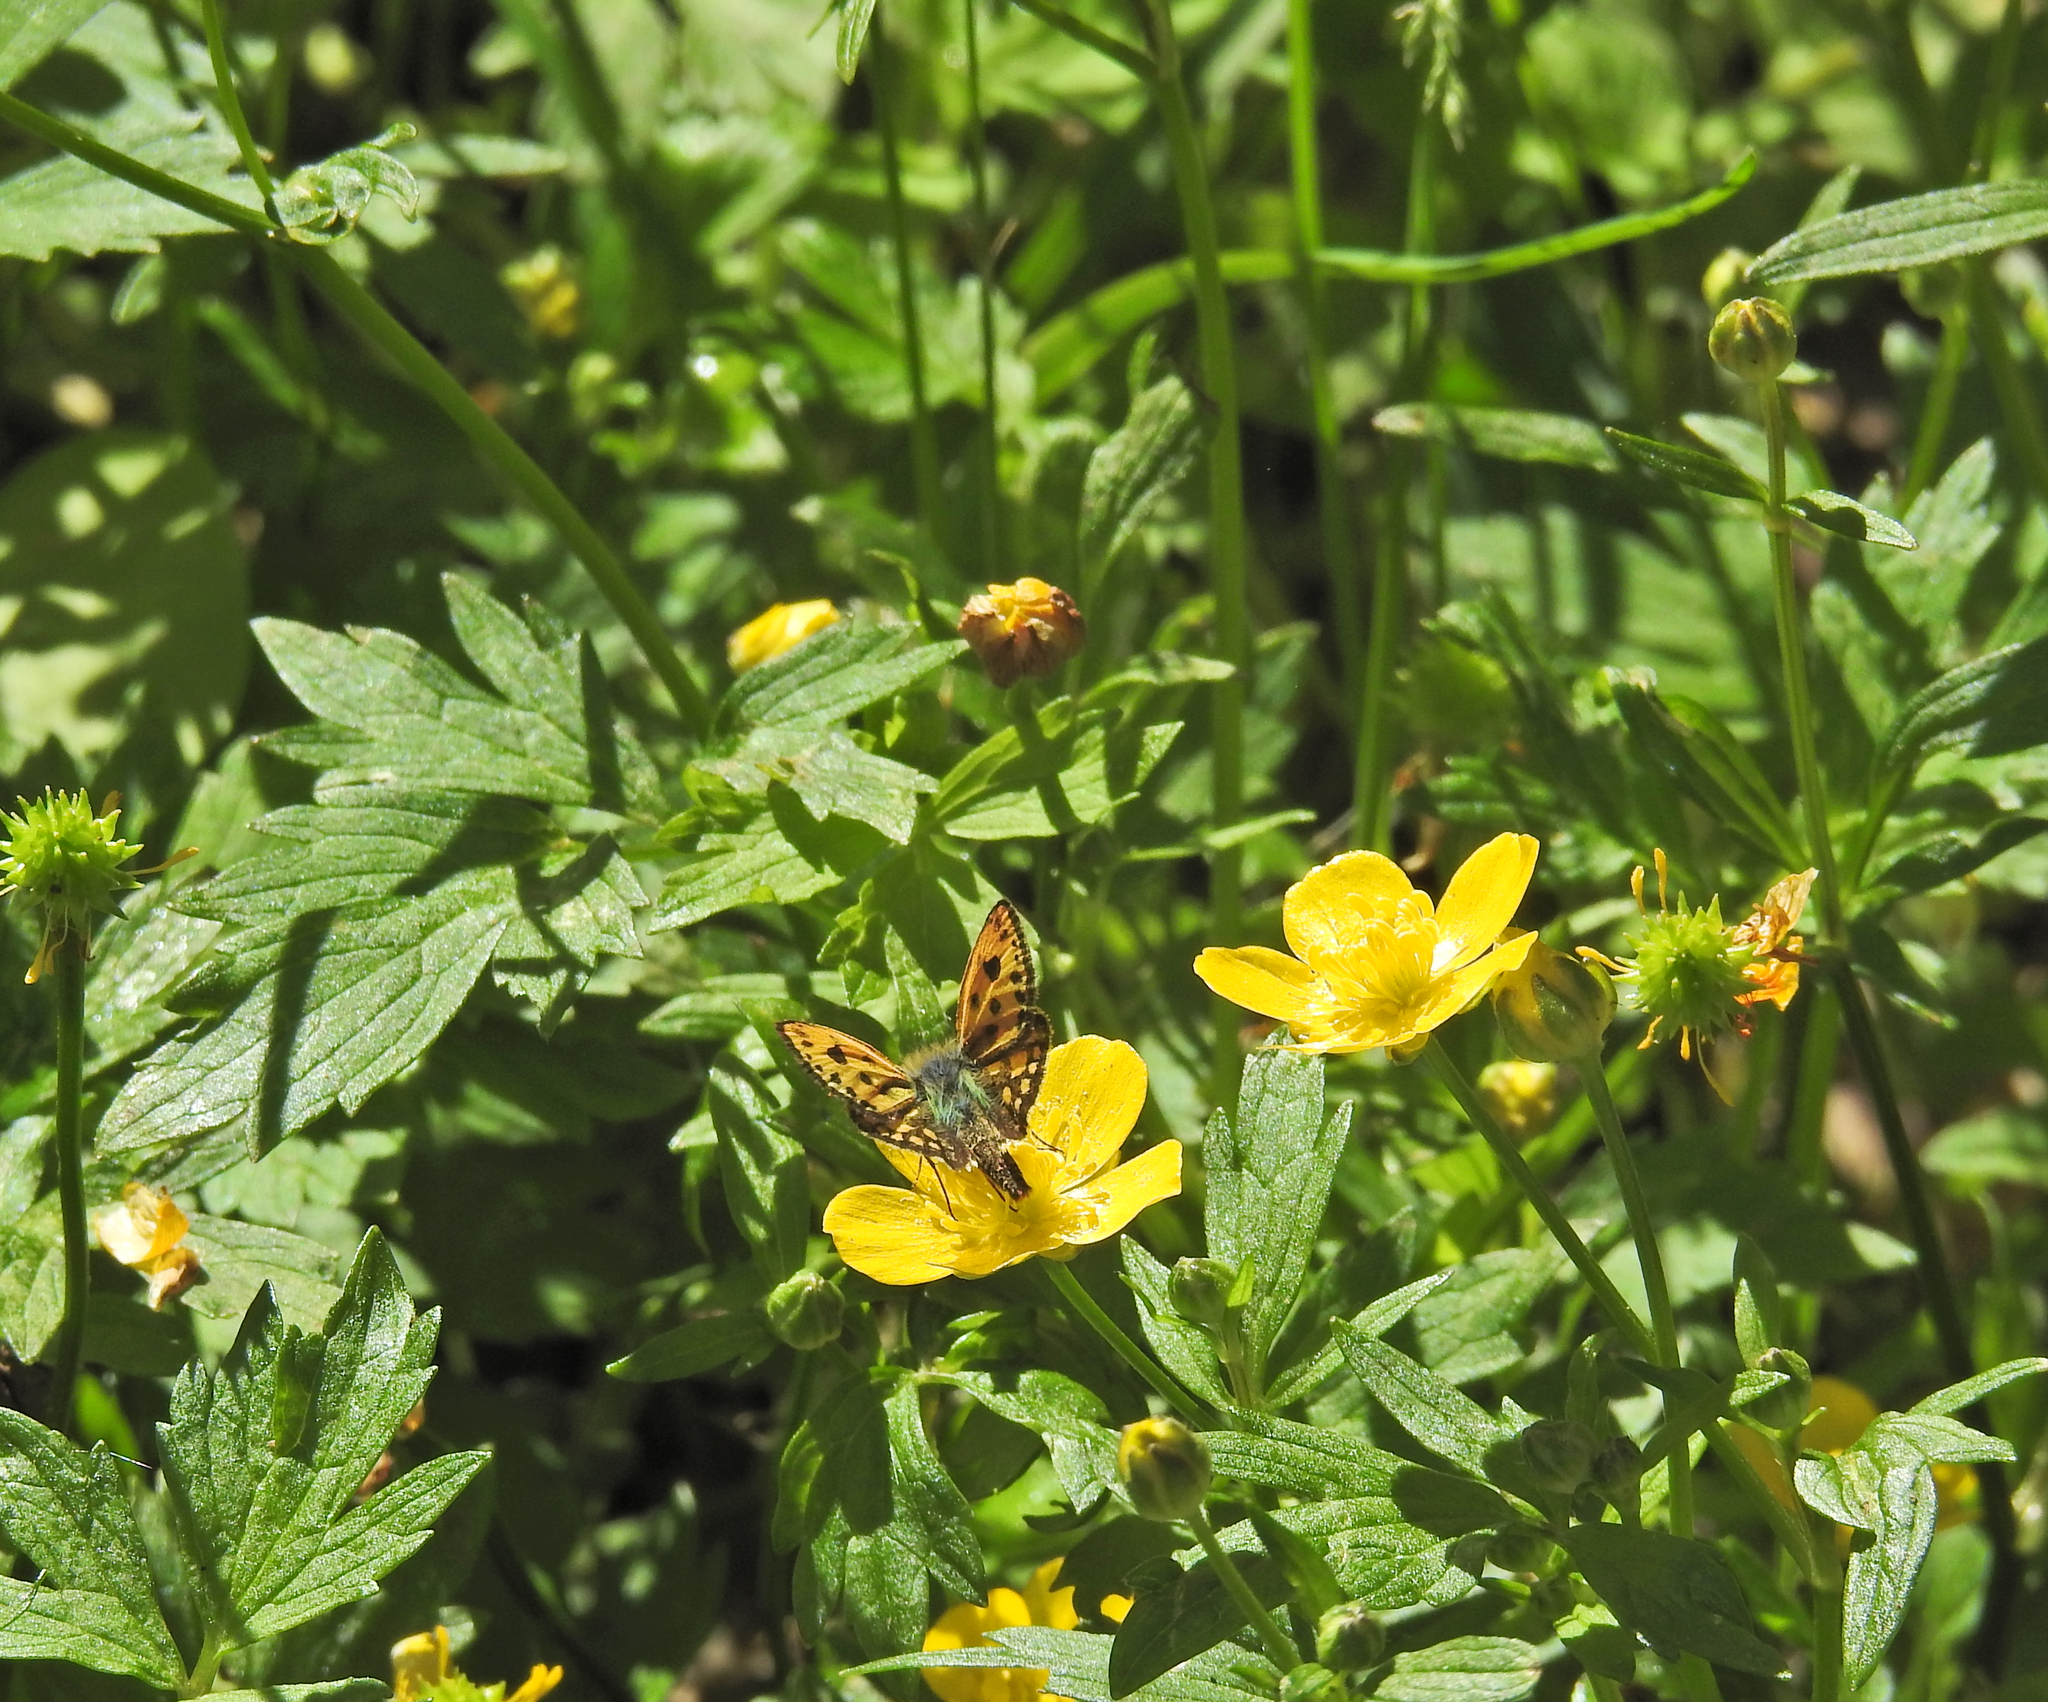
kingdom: Animalia
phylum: Arthropoda
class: Insecta
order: Lepidoptera
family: Hesperiidae
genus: Carterocephalus
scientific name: Carterocephalus silvicola
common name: Northern chequered skipper
